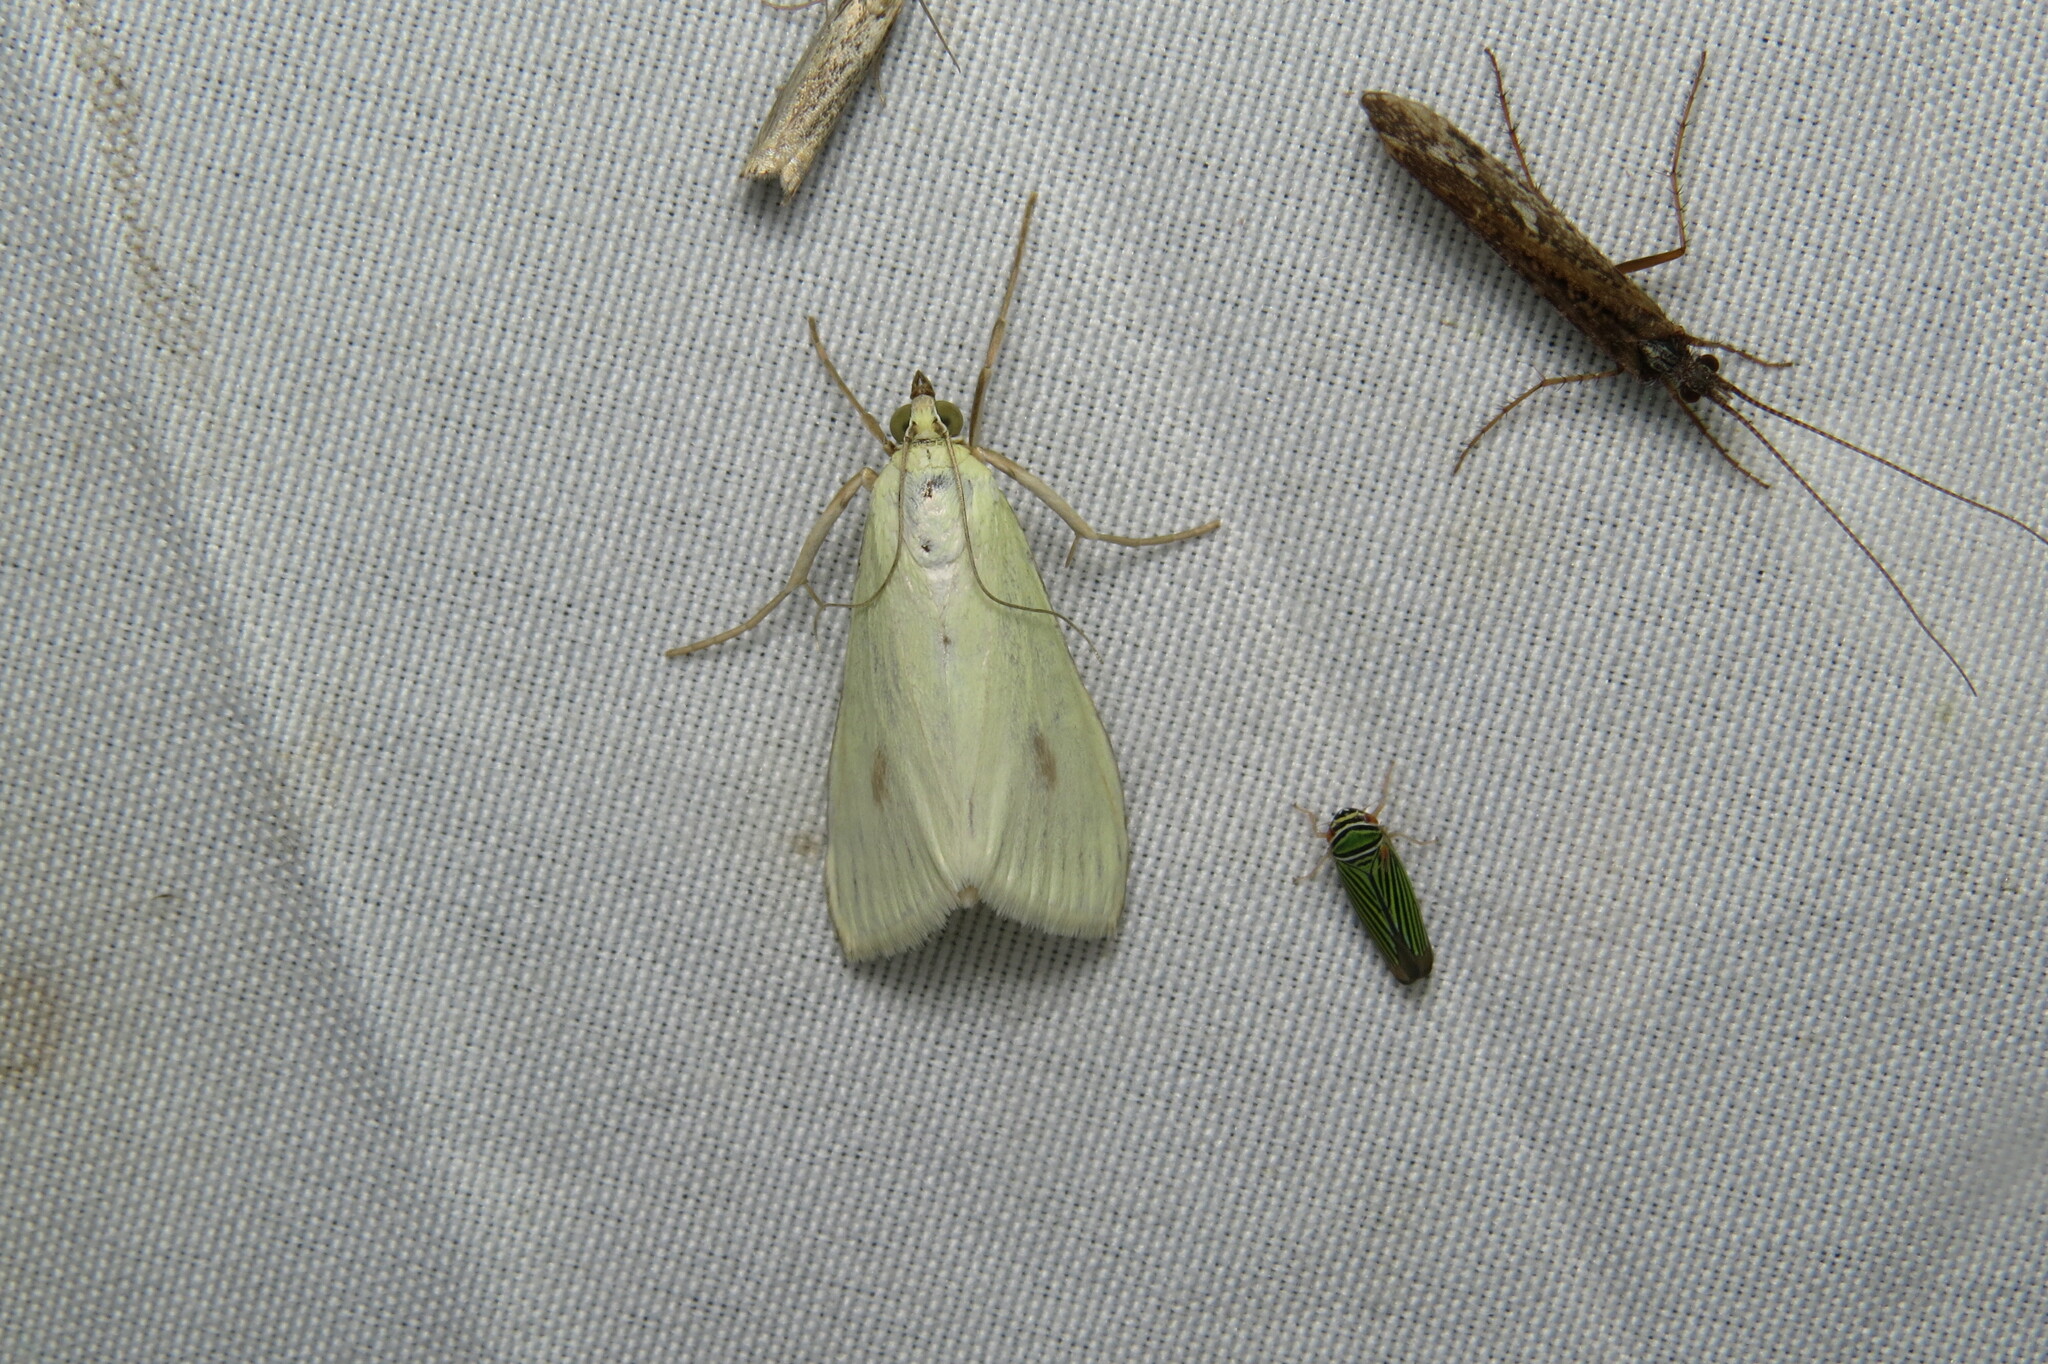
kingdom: Animalia
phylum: Arthropoda
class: Insecta
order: Lepidoptera
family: Crambidae
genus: Sitochroa
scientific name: Sitochroa palealis
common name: Greenish-yellow sitochroa moth
